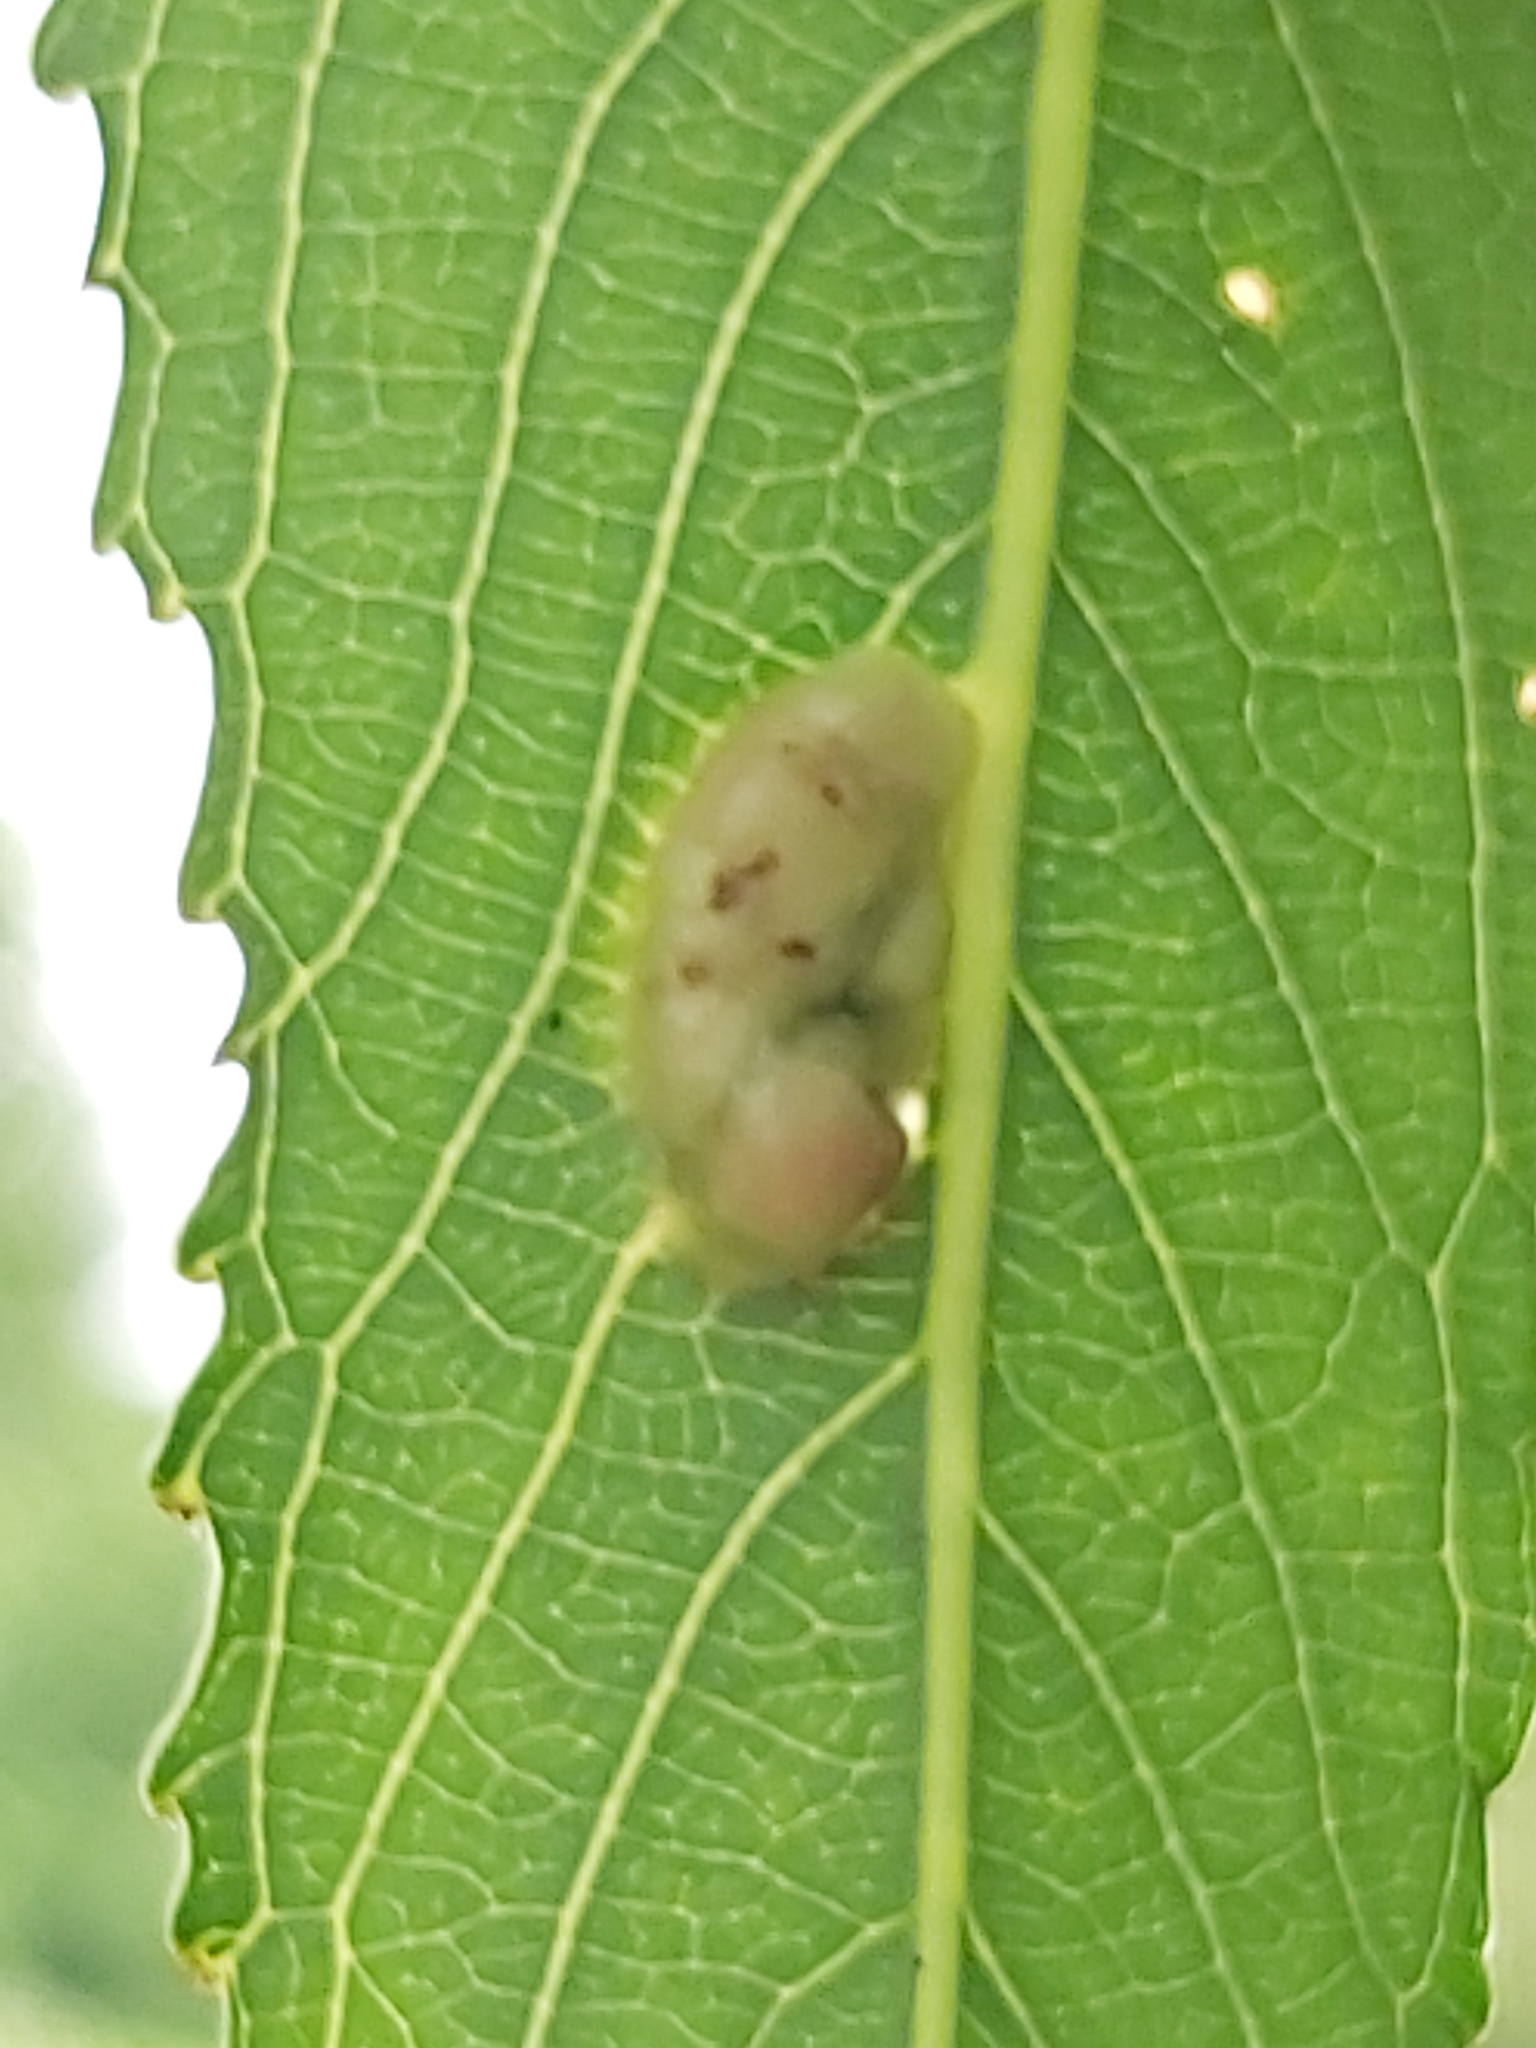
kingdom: Animalia
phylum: Arthropoda
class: Insecta
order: Hymenoptera
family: Tenthredinidae
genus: Pontania
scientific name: Pontania proxima
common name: Common sawfly
